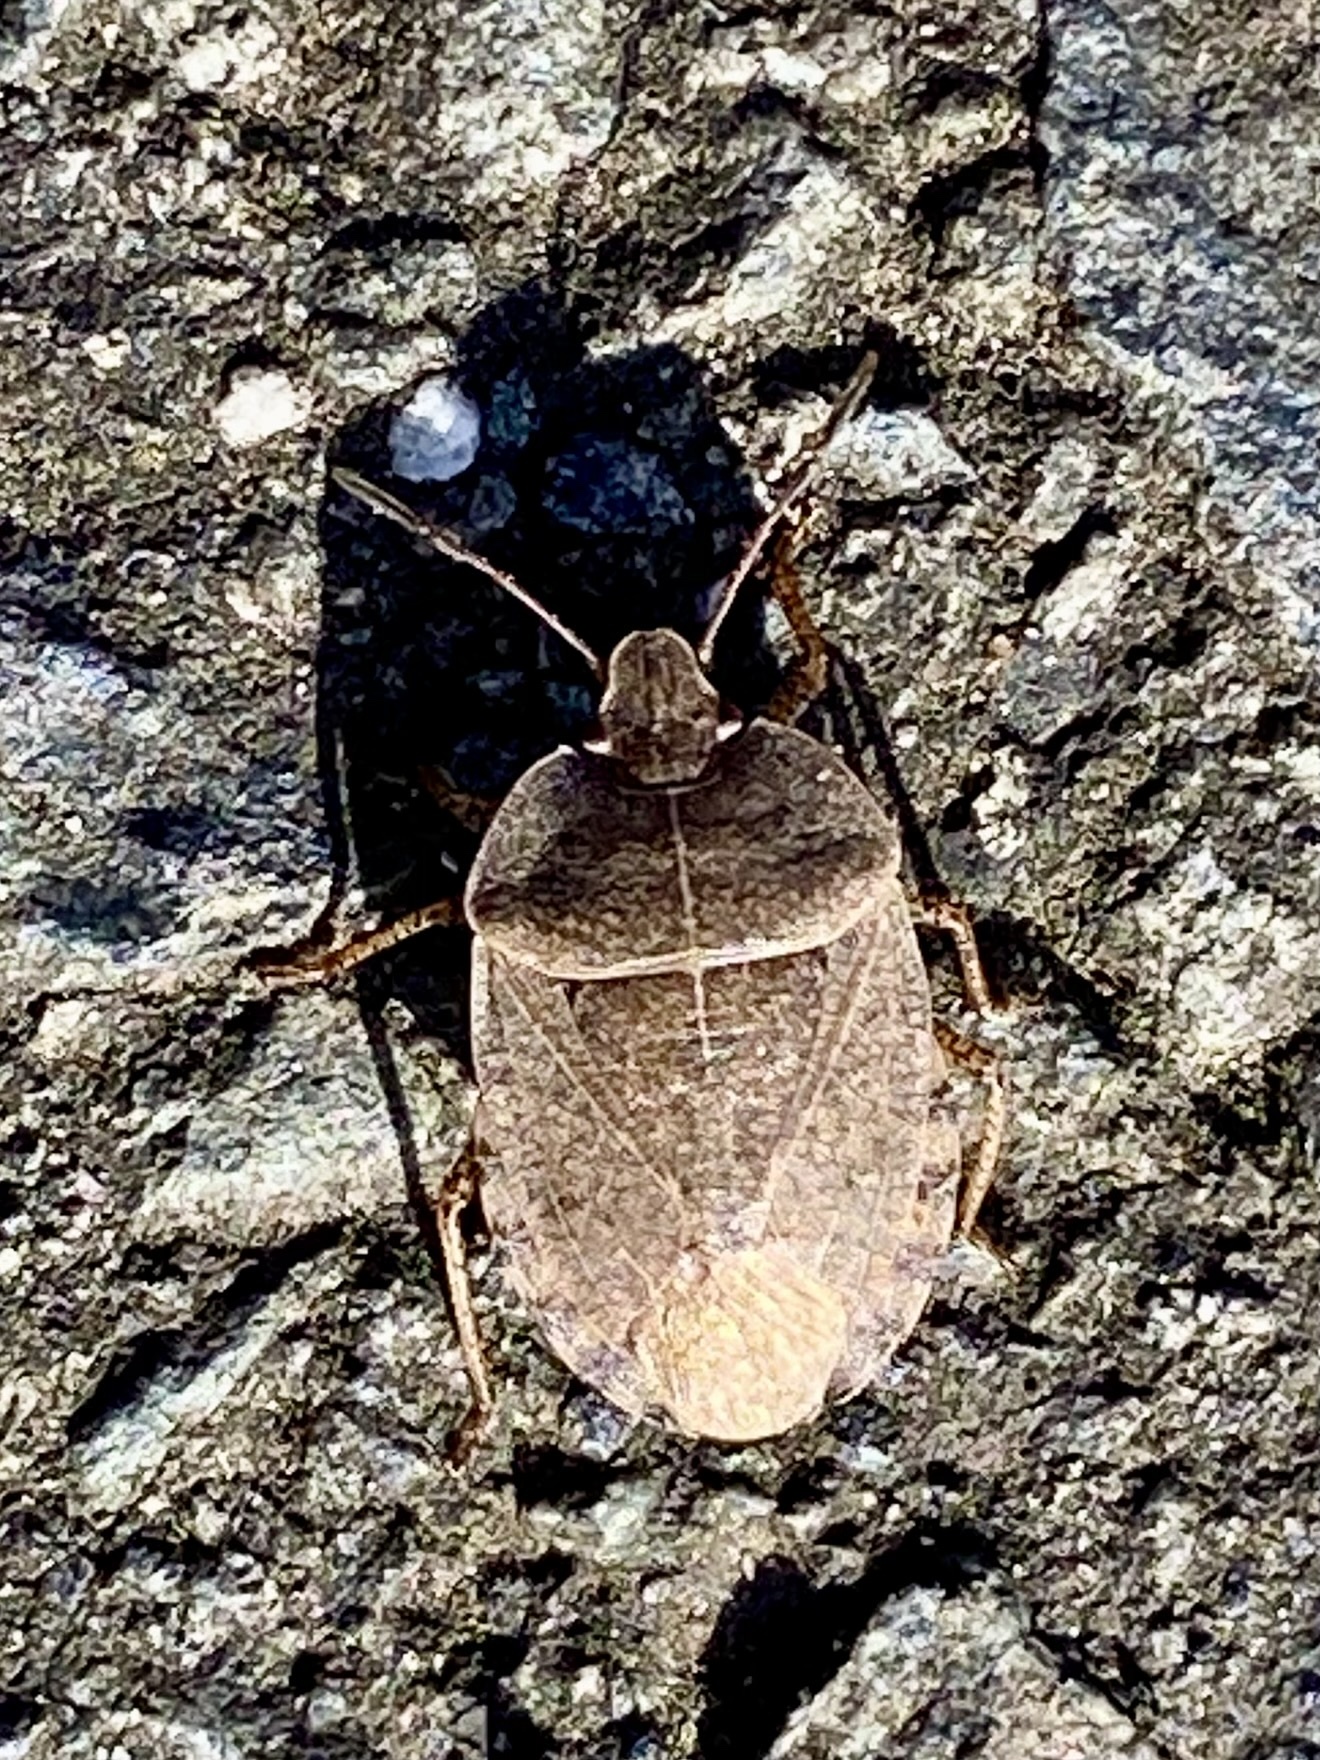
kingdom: Animalia
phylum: Arthropoda
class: Insecta
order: Hemiptera
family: Pentatomidae
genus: Menecles
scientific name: Menecles insertus
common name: Elf shoe stink bug
